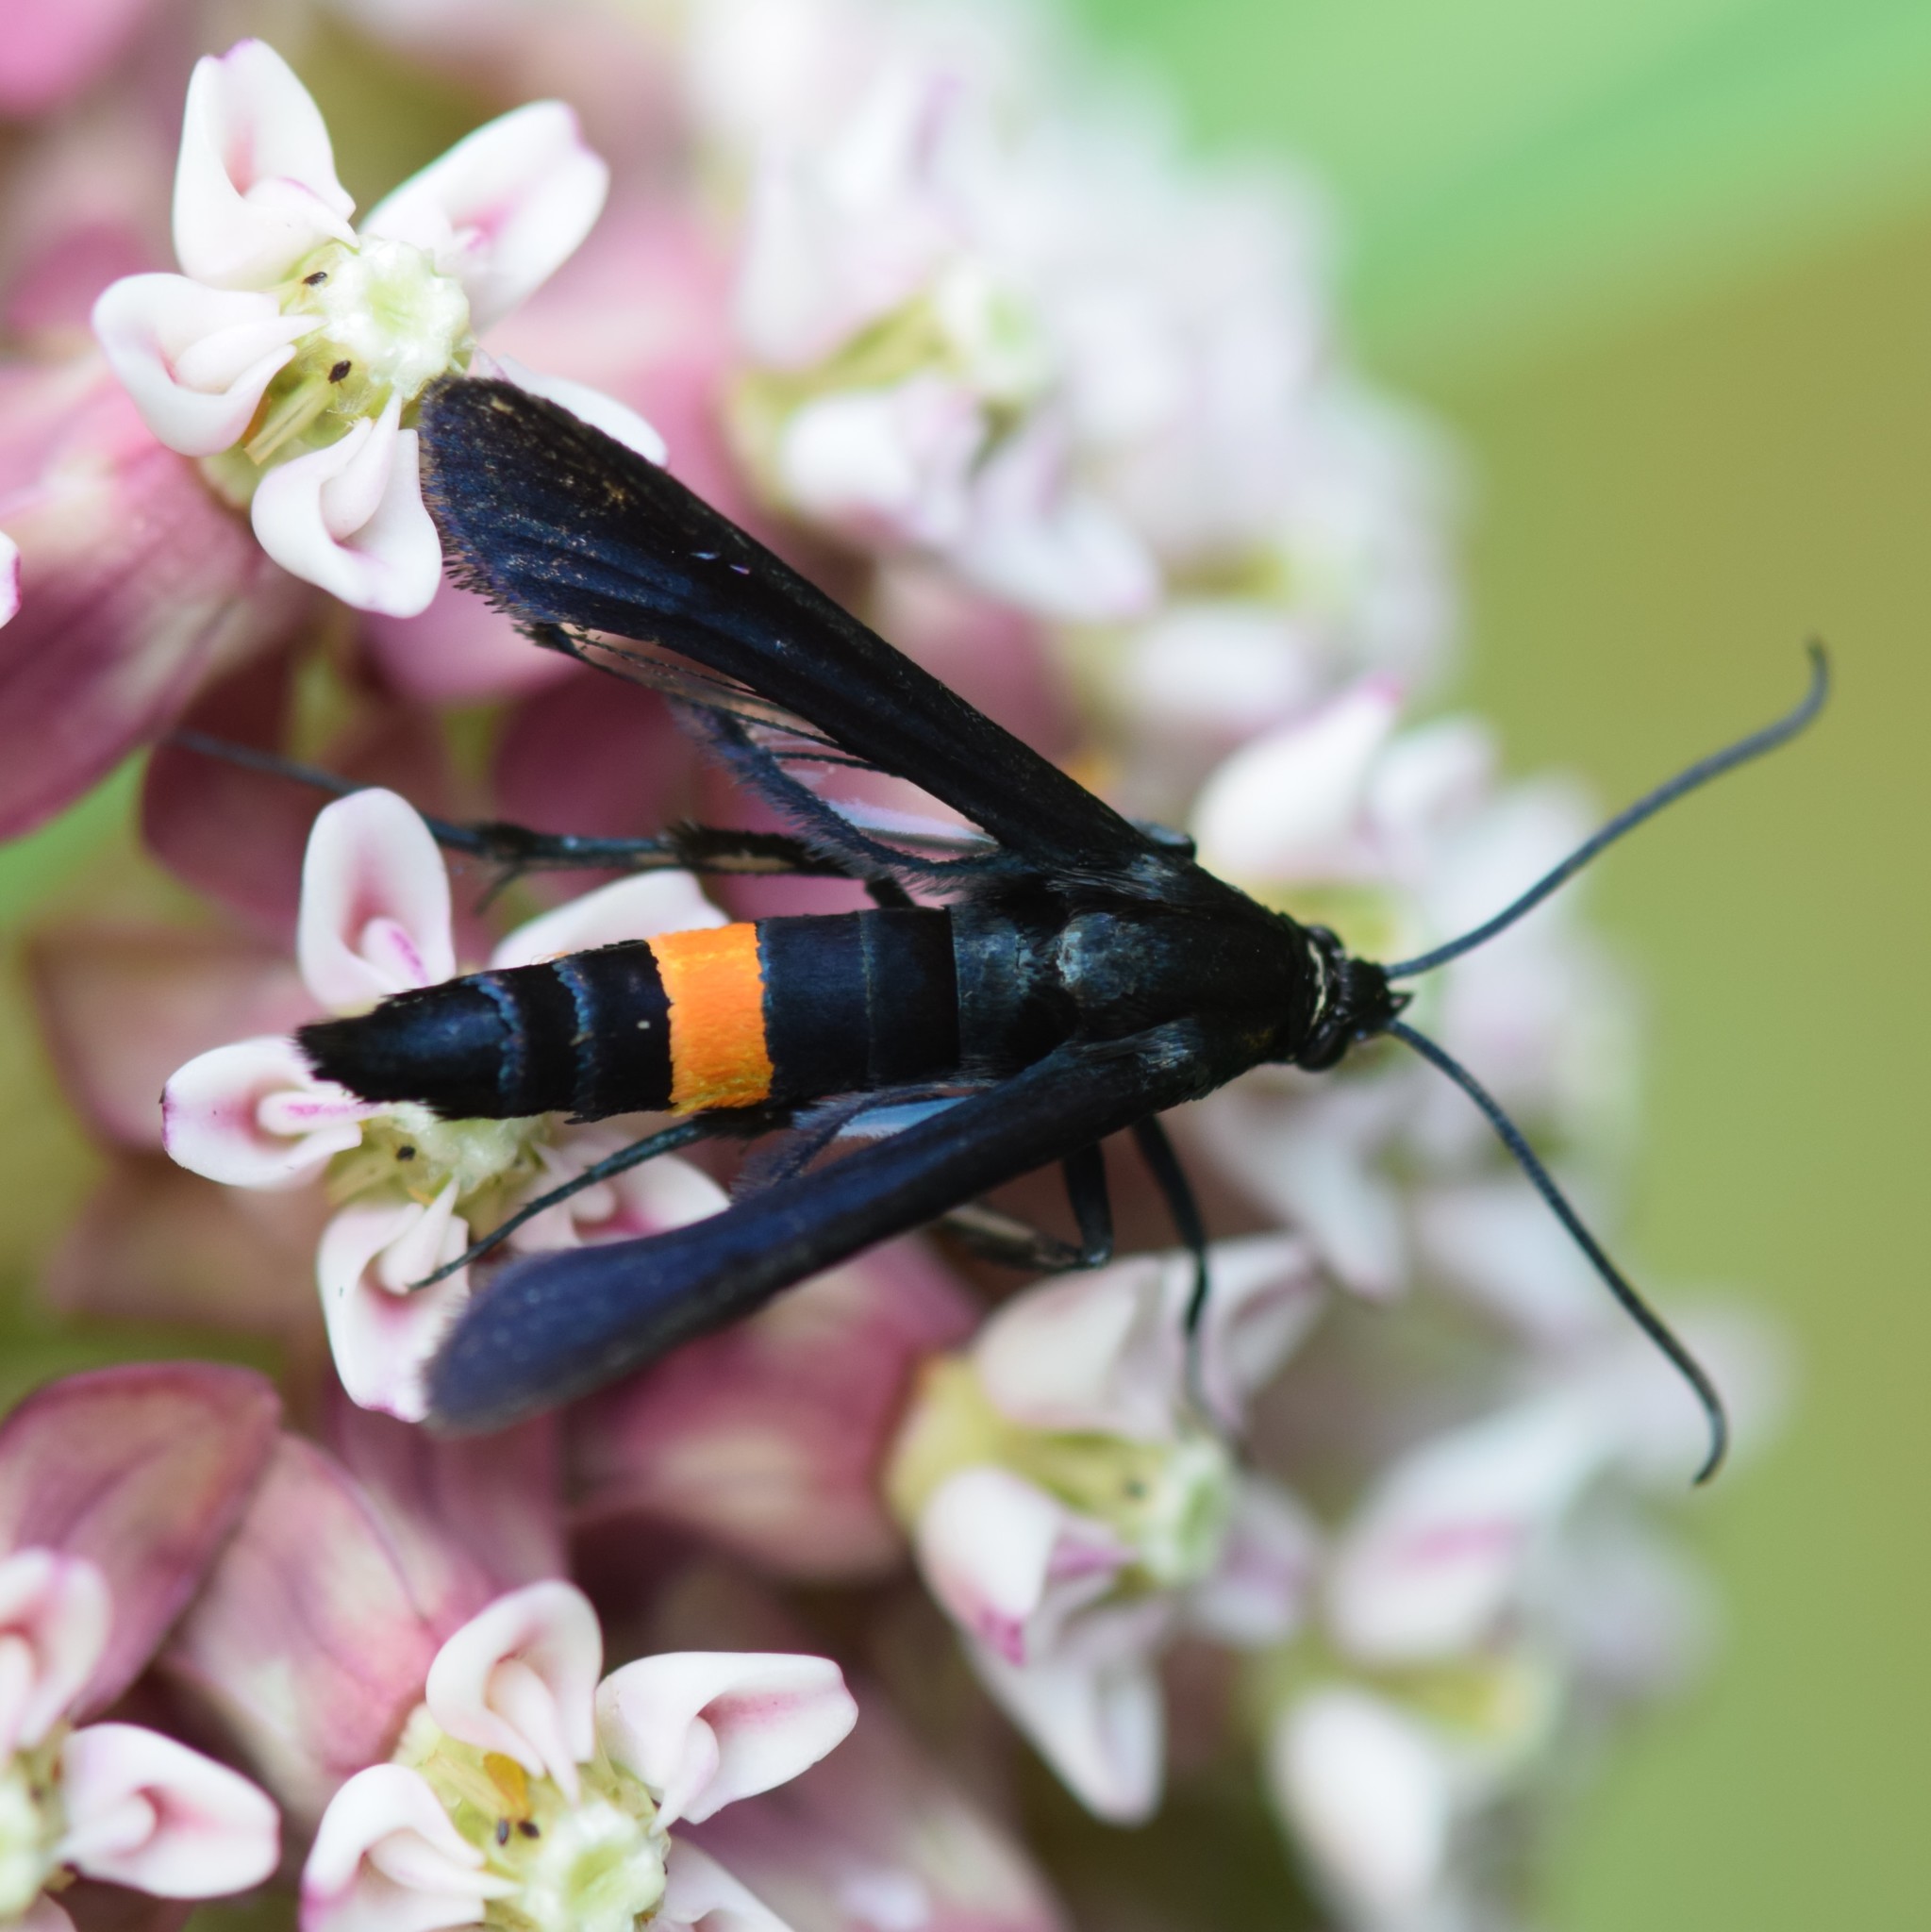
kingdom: Animalia
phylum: Arthropoda
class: Insecta
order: Lepidoptera
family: Sesiidae
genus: Synanthedon
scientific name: Synanthedon exitiosa
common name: Peachtree borer moth
